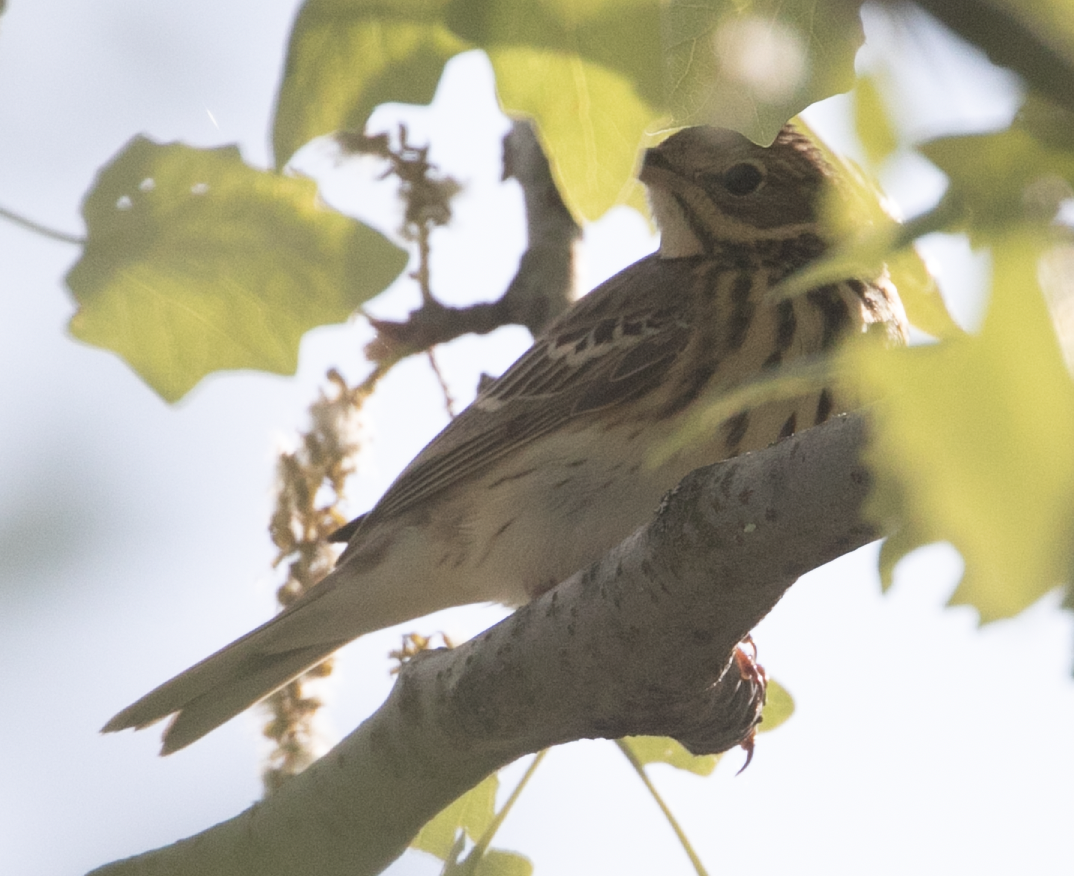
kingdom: Animalia
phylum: Chordata
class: Aves
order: Passeriformes
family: Motacillidae
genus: Anthus
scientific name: Anthus trivialis
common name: Tree pipit
